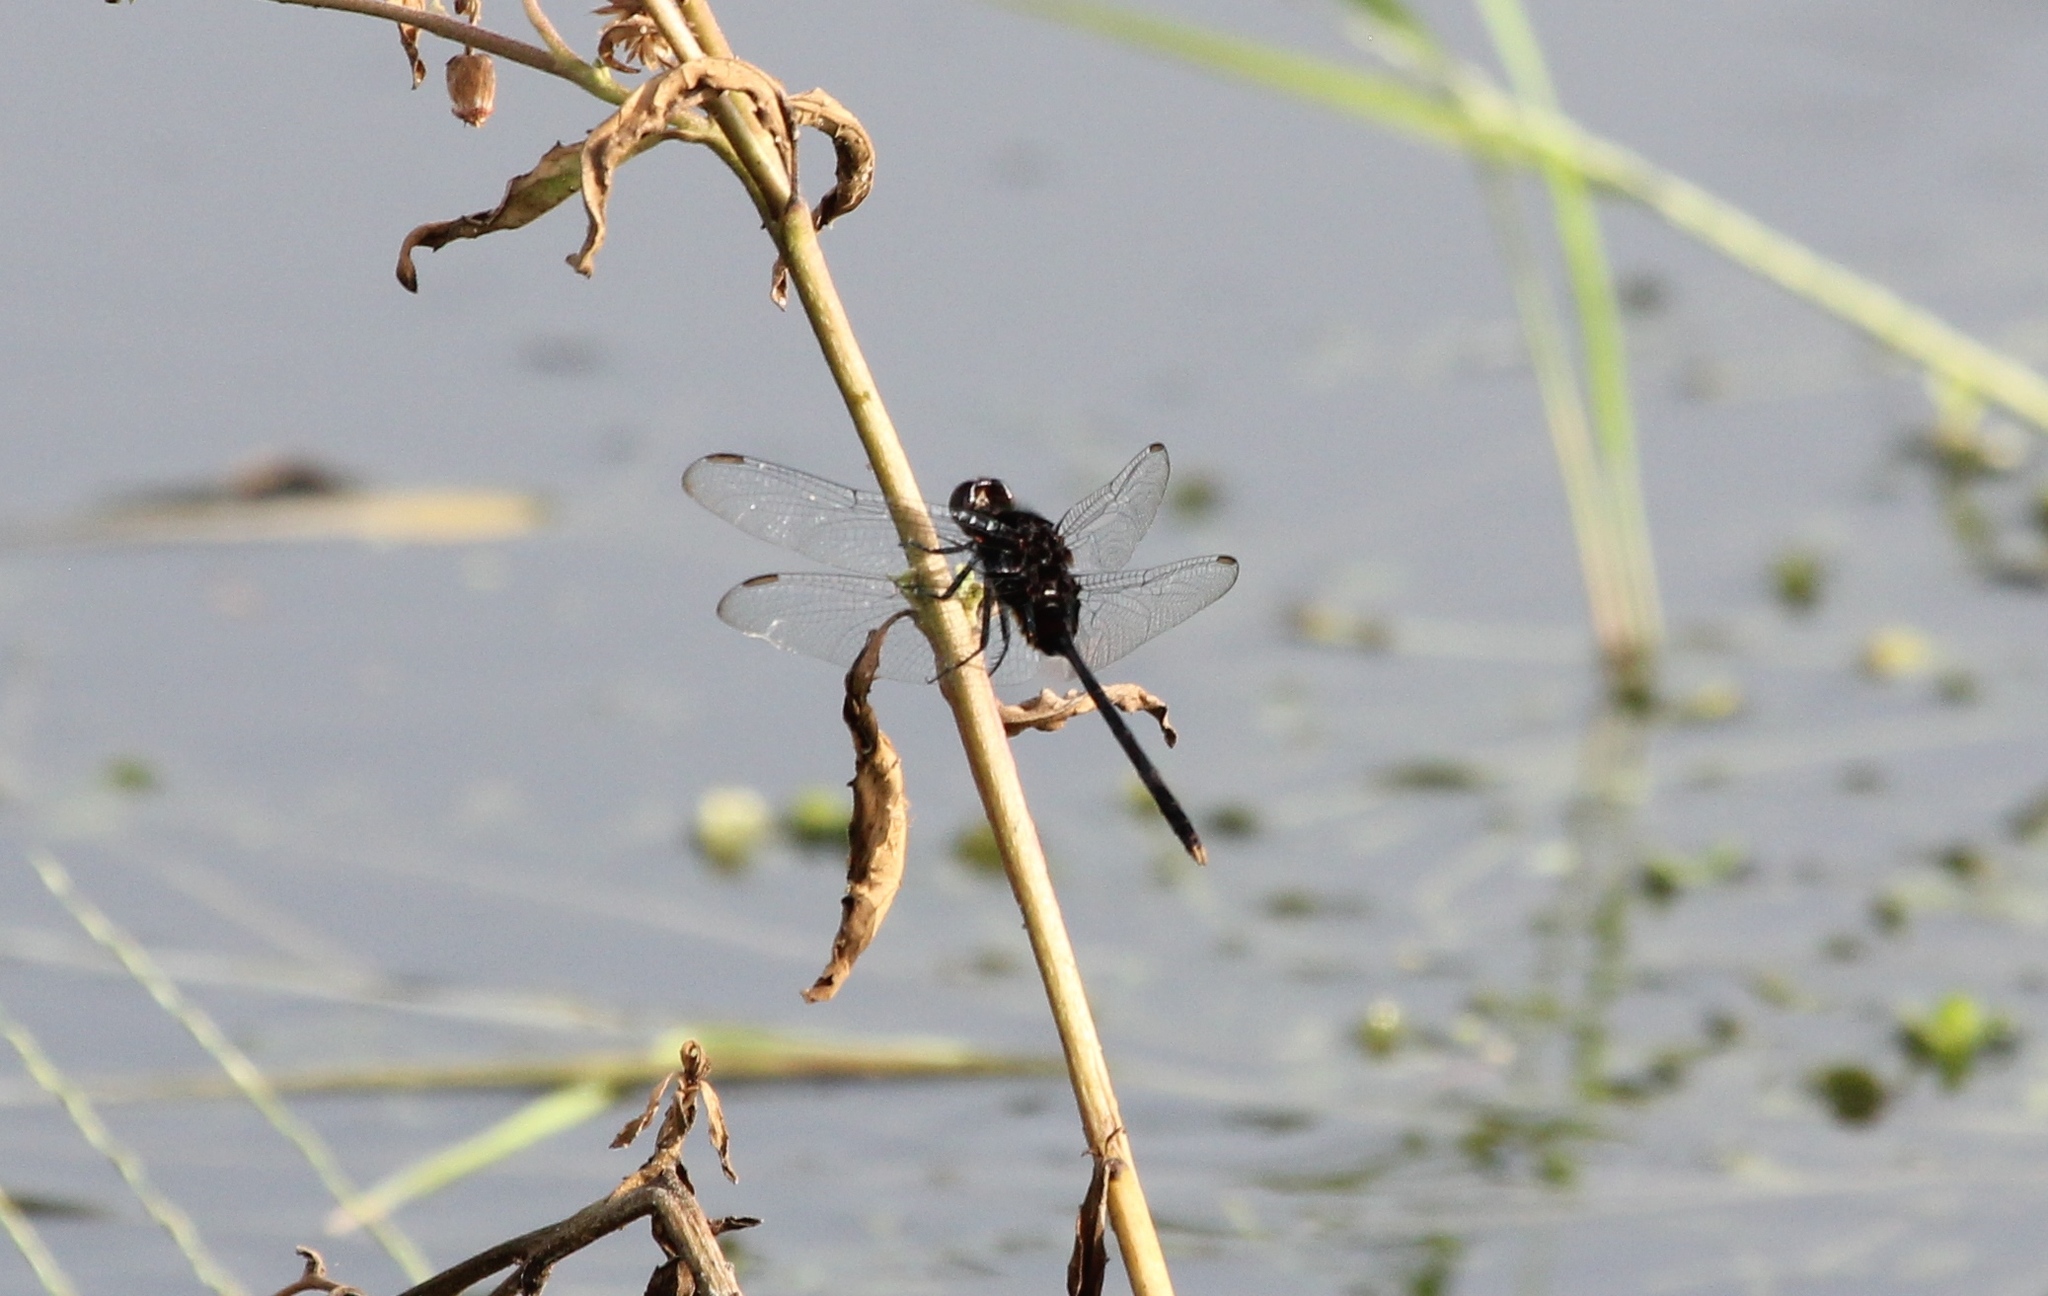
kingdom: Animalia
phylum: Arthropoda
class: Insecta
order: Odonata
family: Libellulidae
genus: Erythemis
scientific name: Erythemis plebeja
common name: Pin-tailed pondhawk
